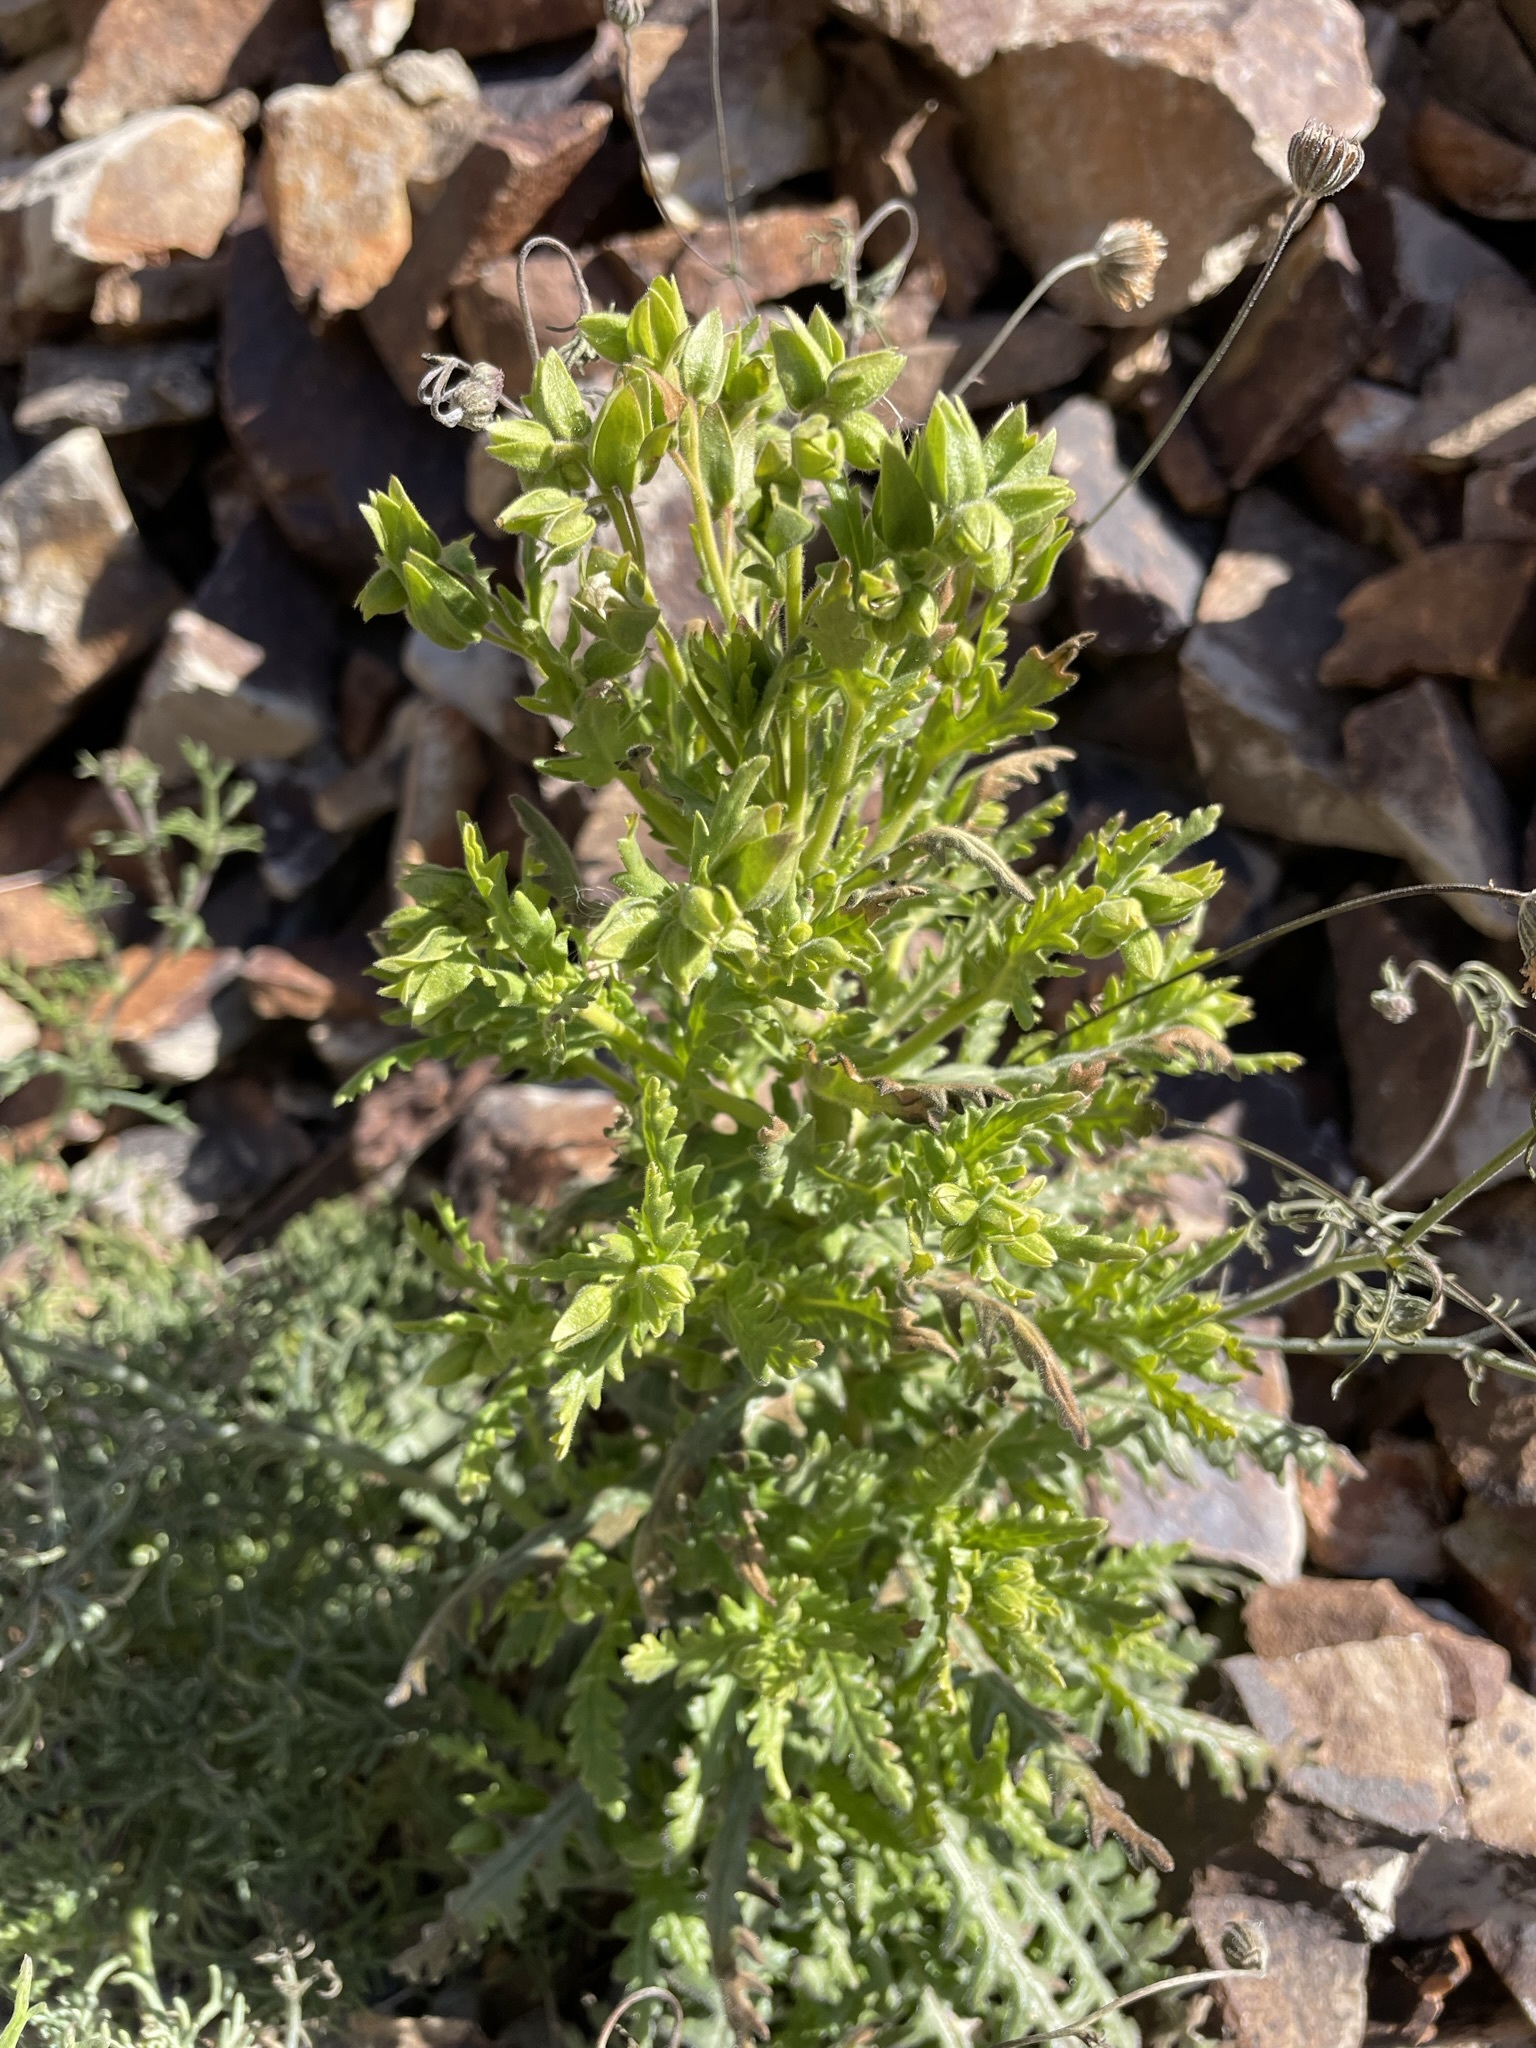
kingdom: Plantae
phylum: Tracheophyta
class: Magnoliopsida
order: Boraginales
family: Hydrophyllaceae
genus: Emmenanthe
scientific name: Emmenanthe penduliflora
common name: Whispering-bells
